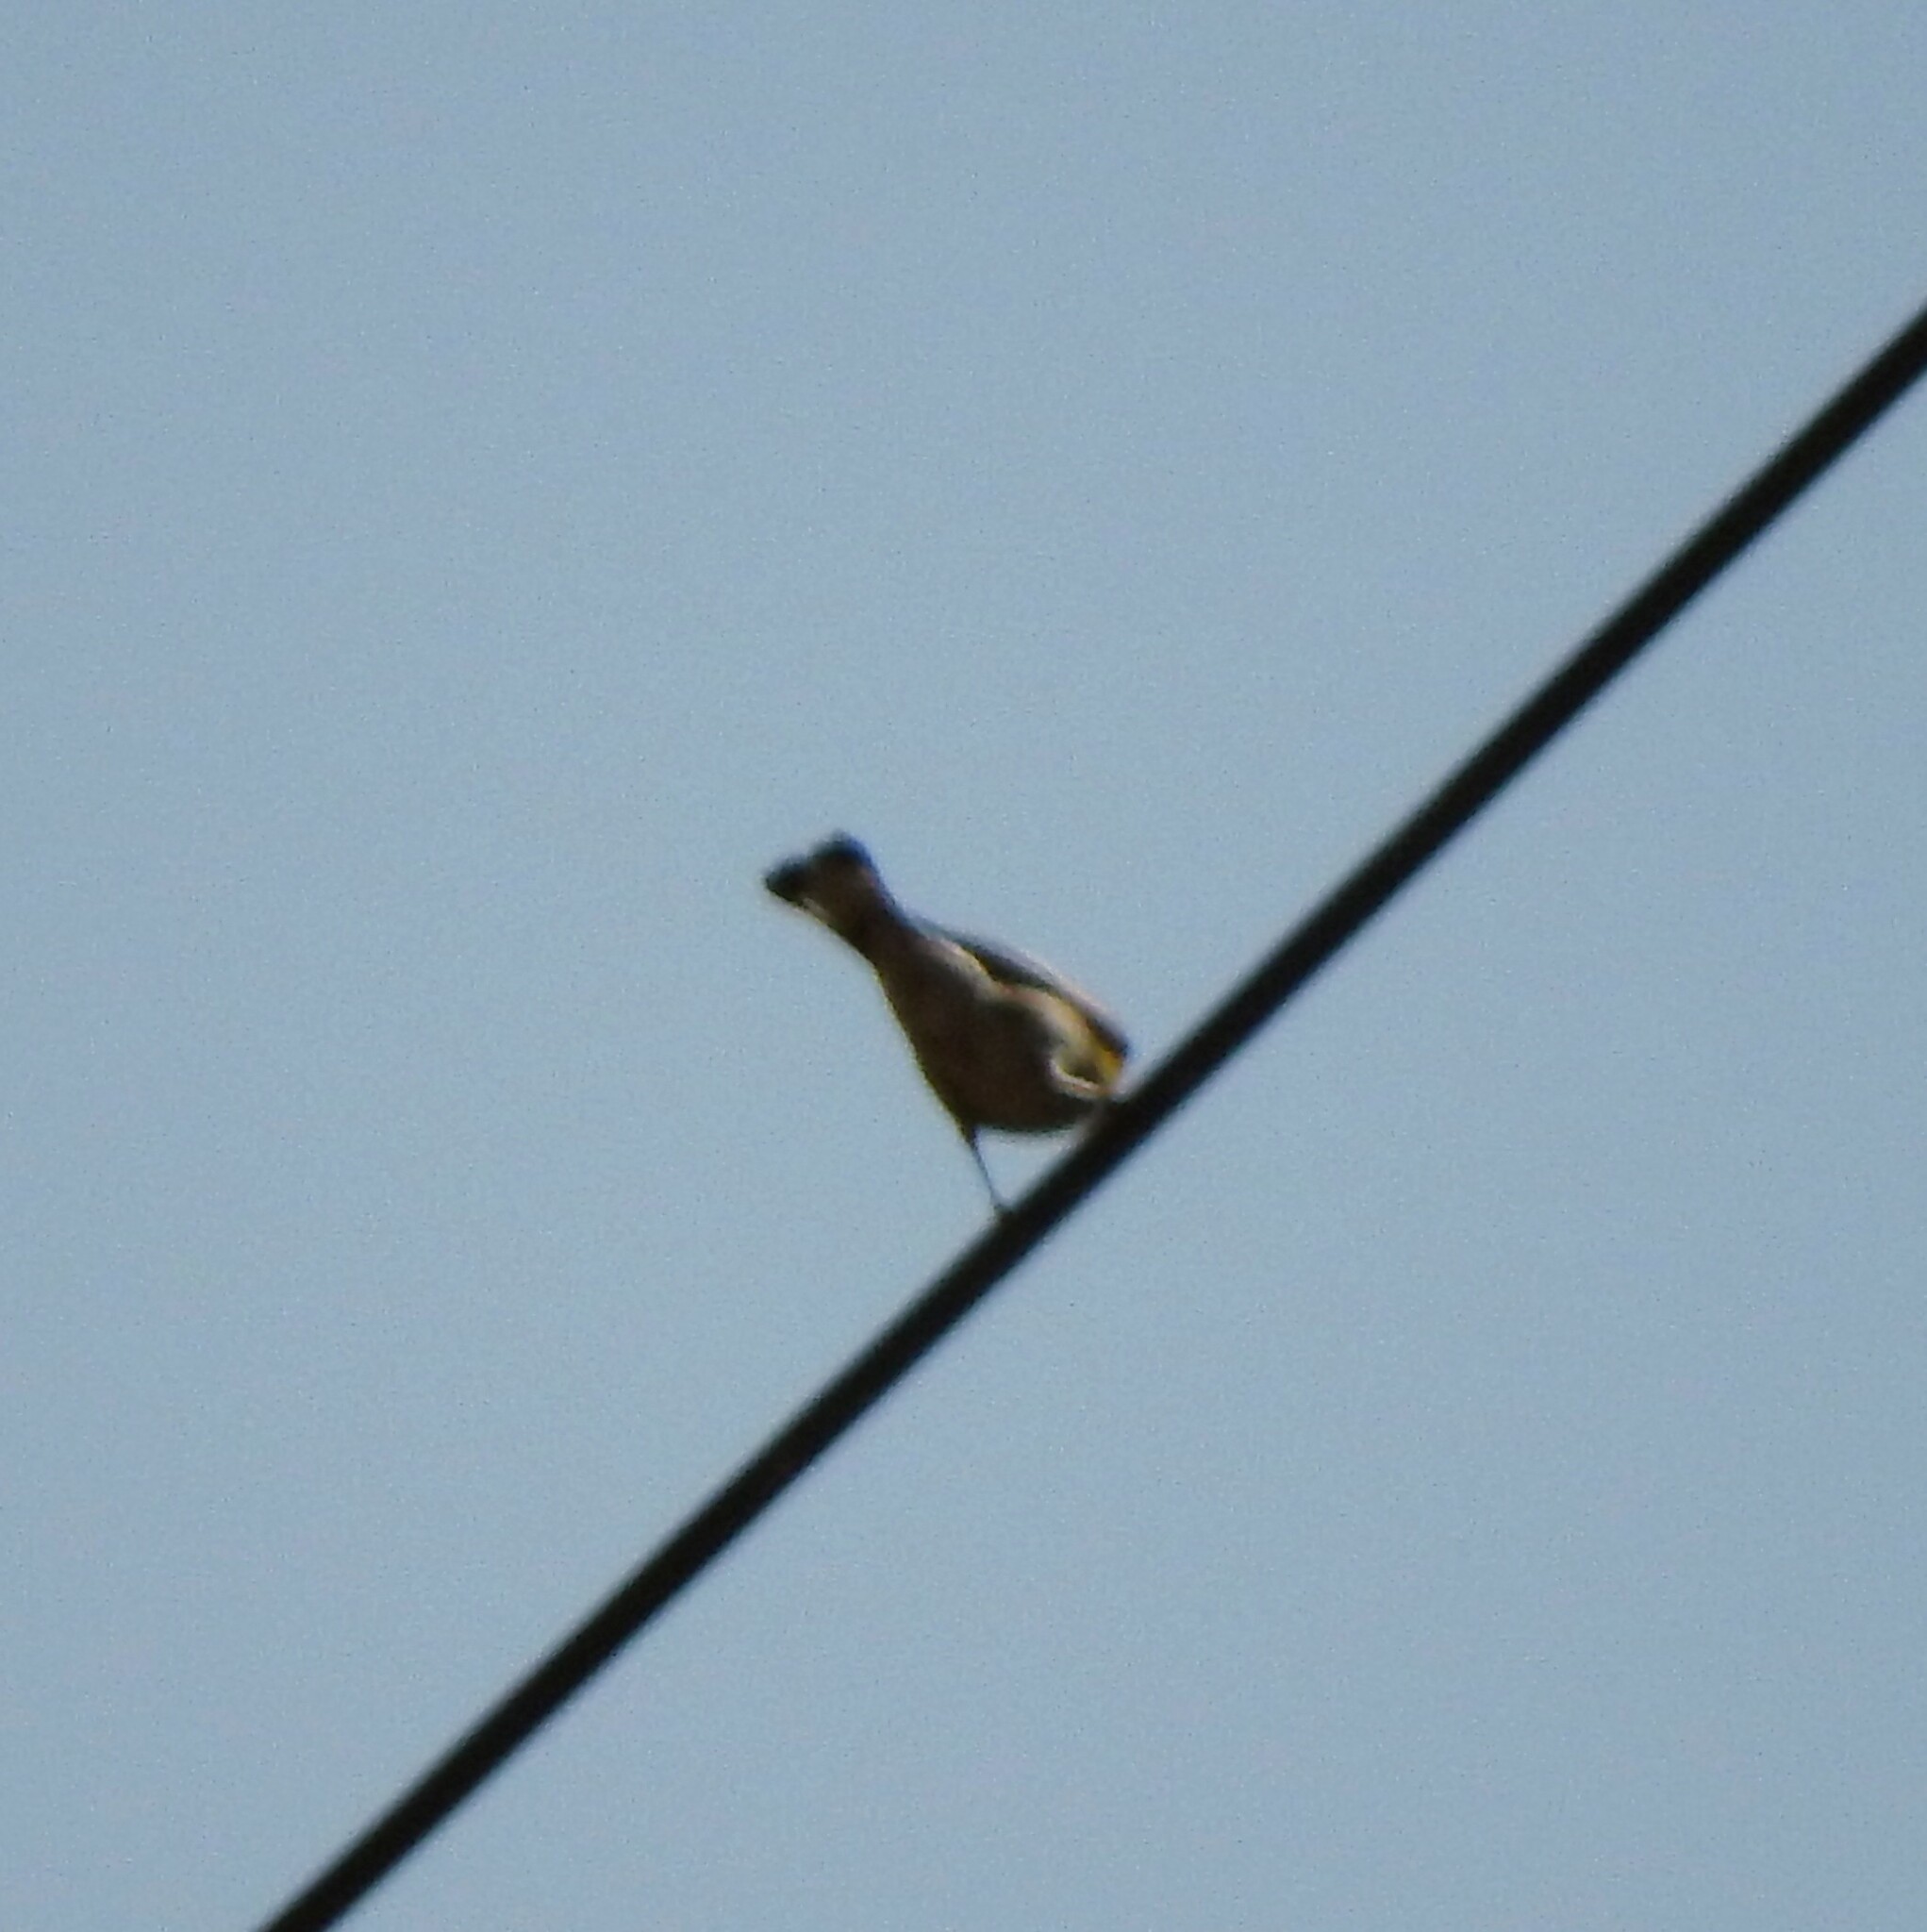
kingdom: Animalia
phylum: Chordata
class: Aves
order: Passeriformes
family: Parulidae
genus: Setophaga
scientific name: Setophaga
